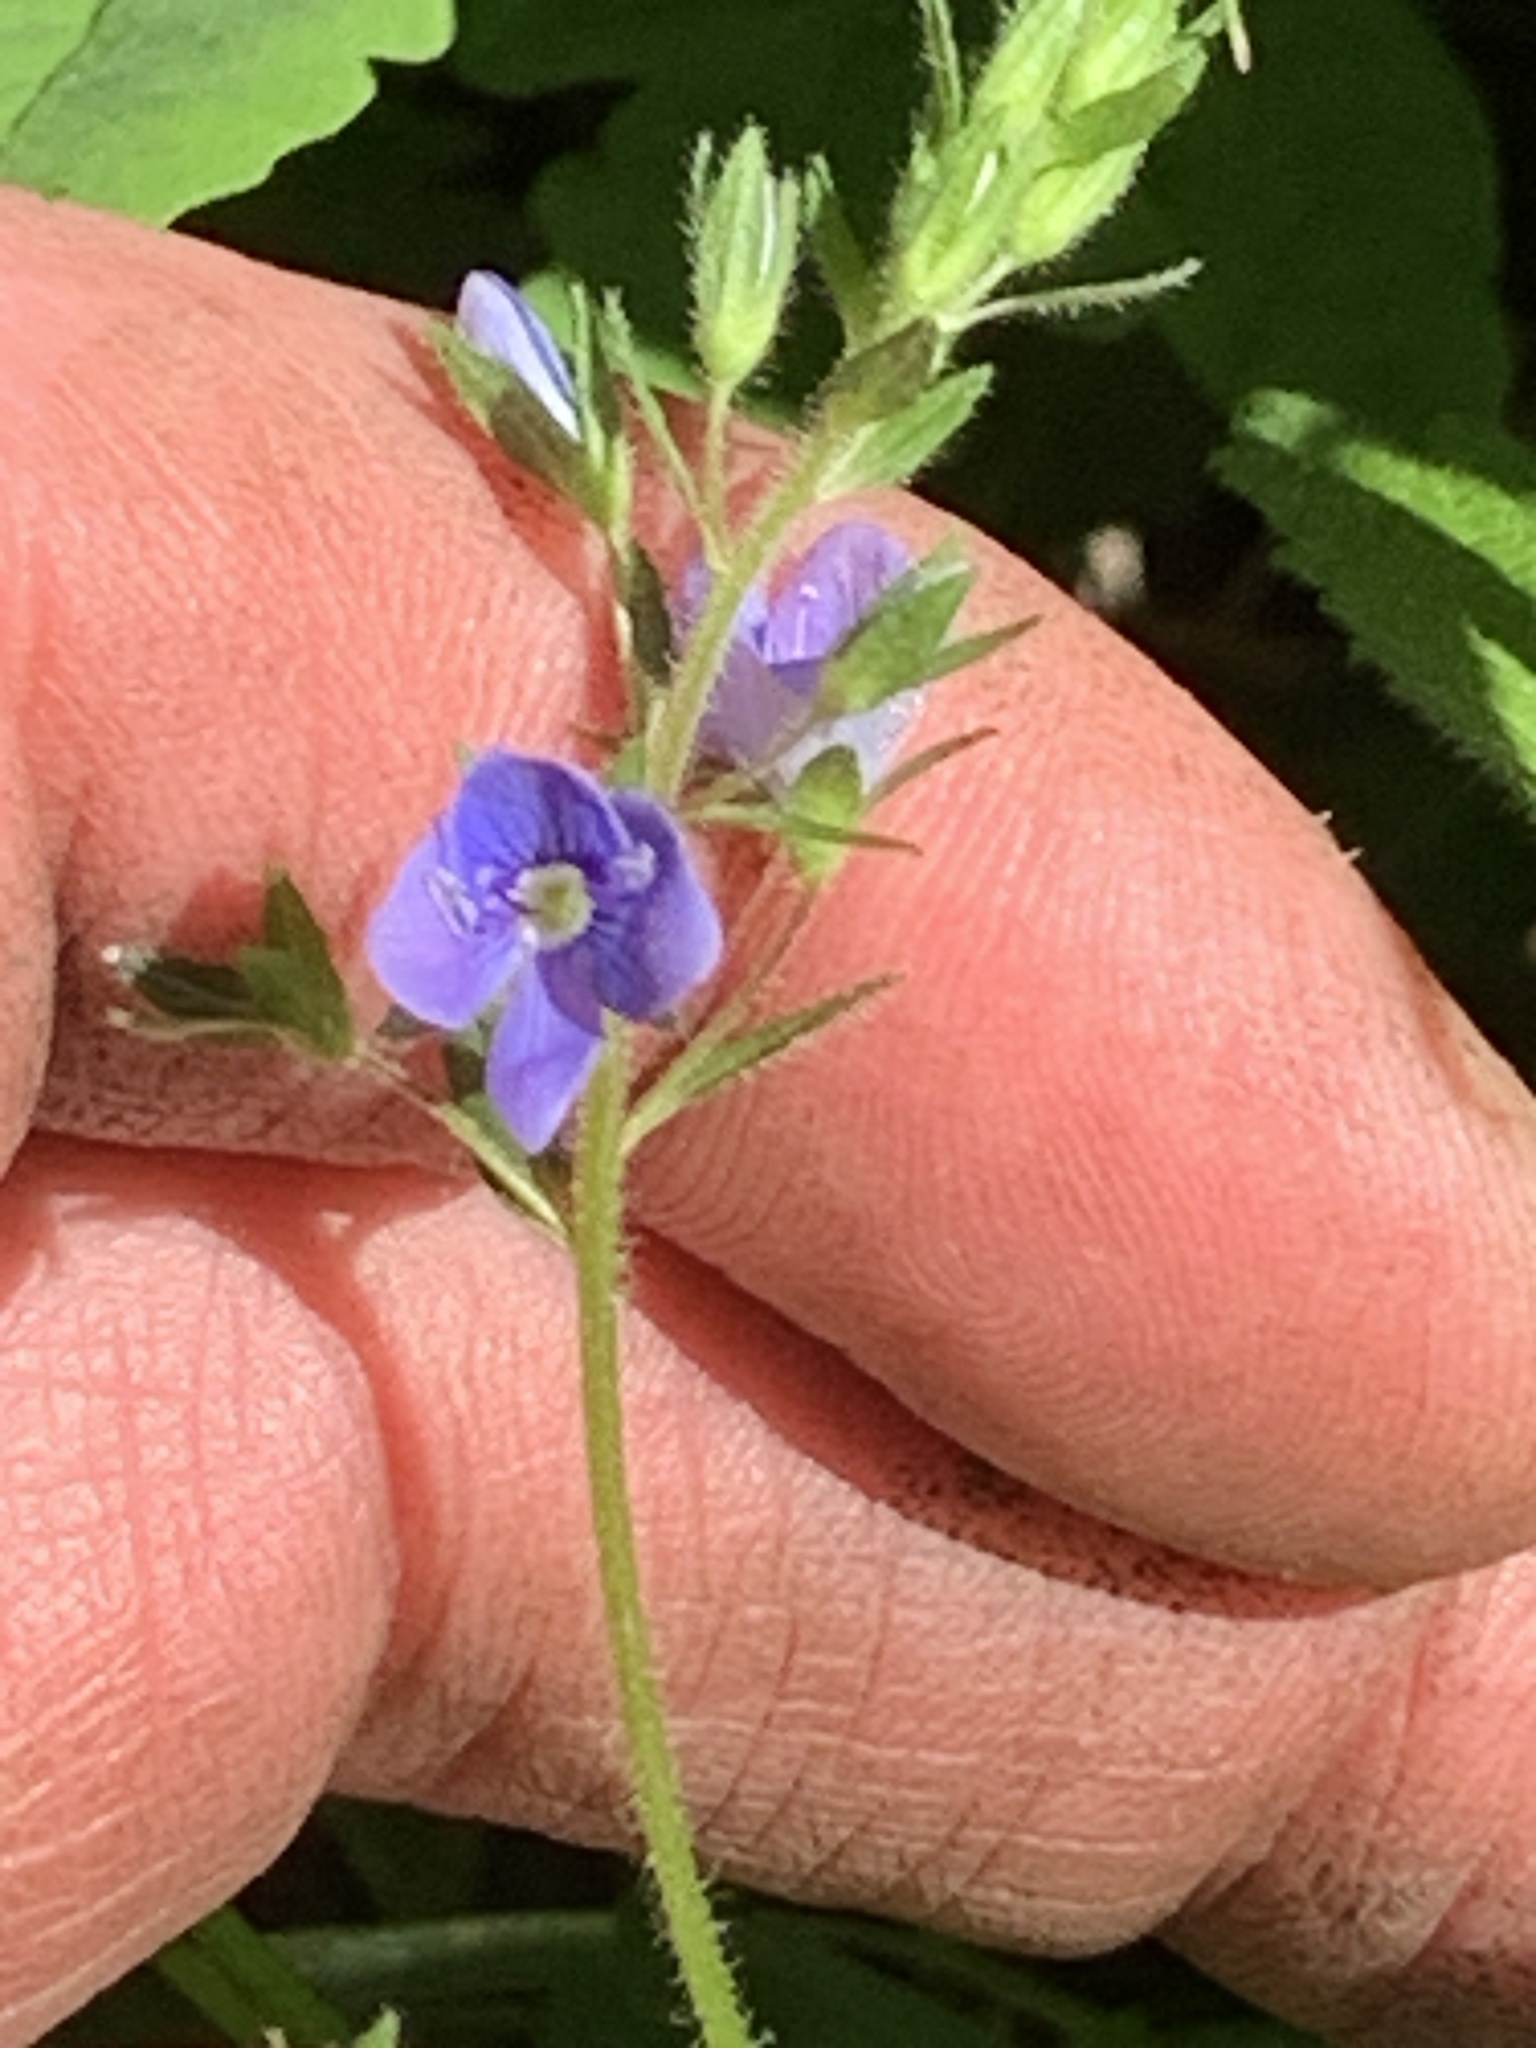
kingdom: Plantae
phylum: Tracheophyta
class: Magnoliopsida
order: Lamiales
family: Plantaginaceae
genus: Veronica
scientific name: Veronica chamaedrys
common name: Germander speedwell
